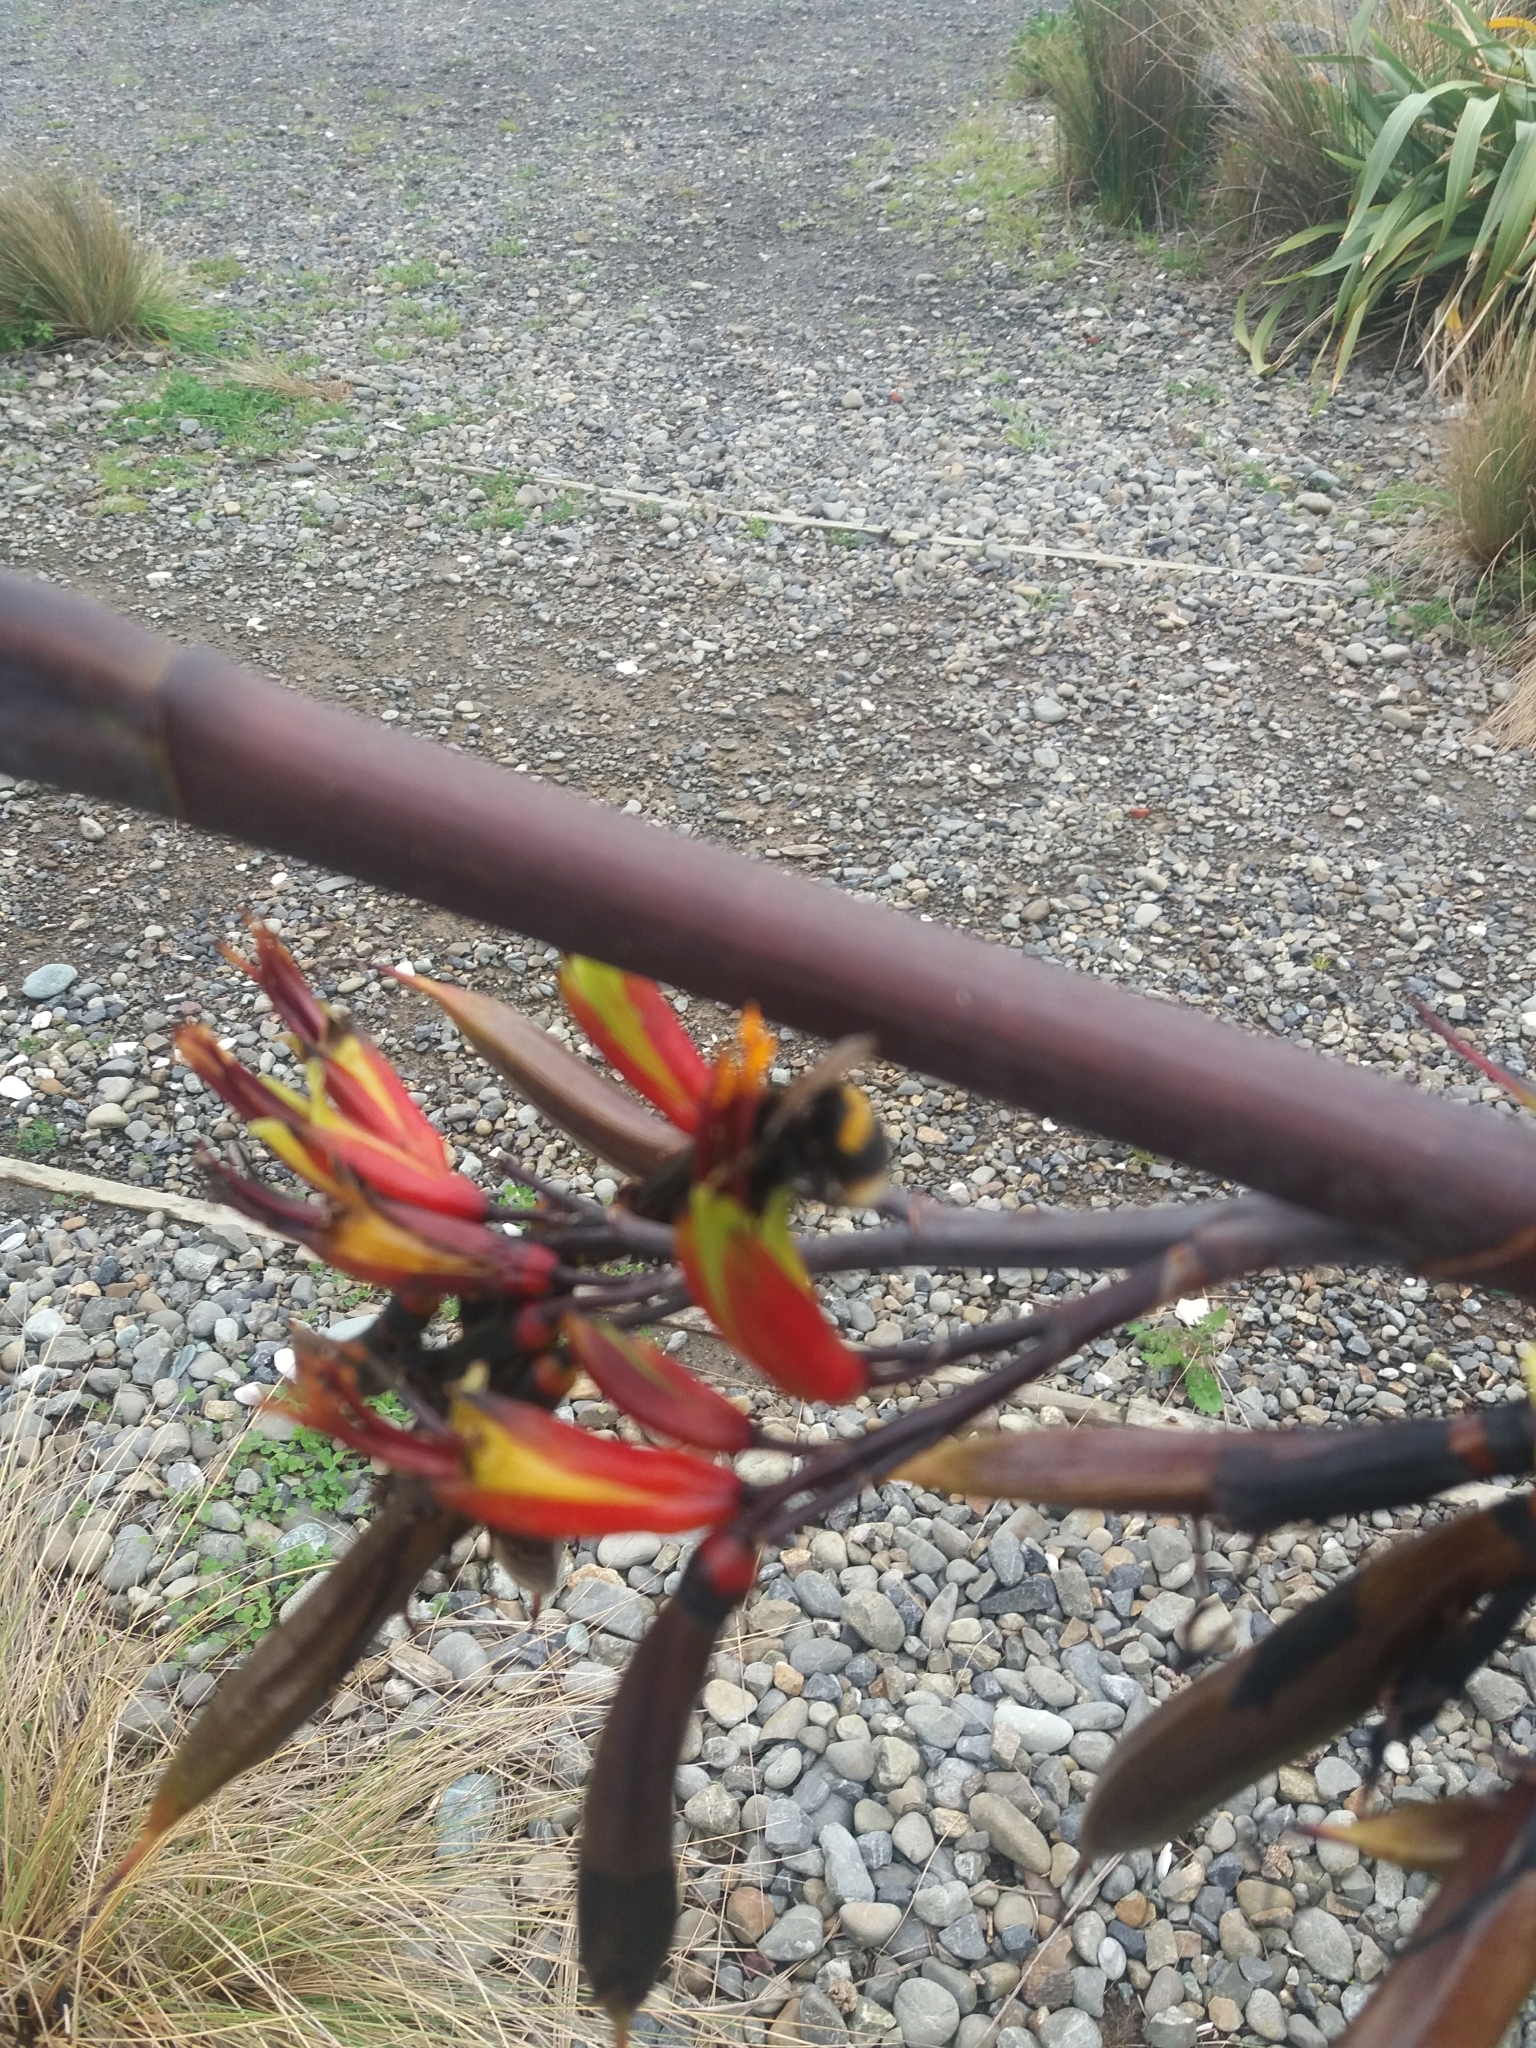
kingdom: Plantae
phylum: Tracheophyta
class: Liliopsida
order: Asparagales
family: Asphodelaceae
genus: Phormium
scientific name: Phormium colensoi
